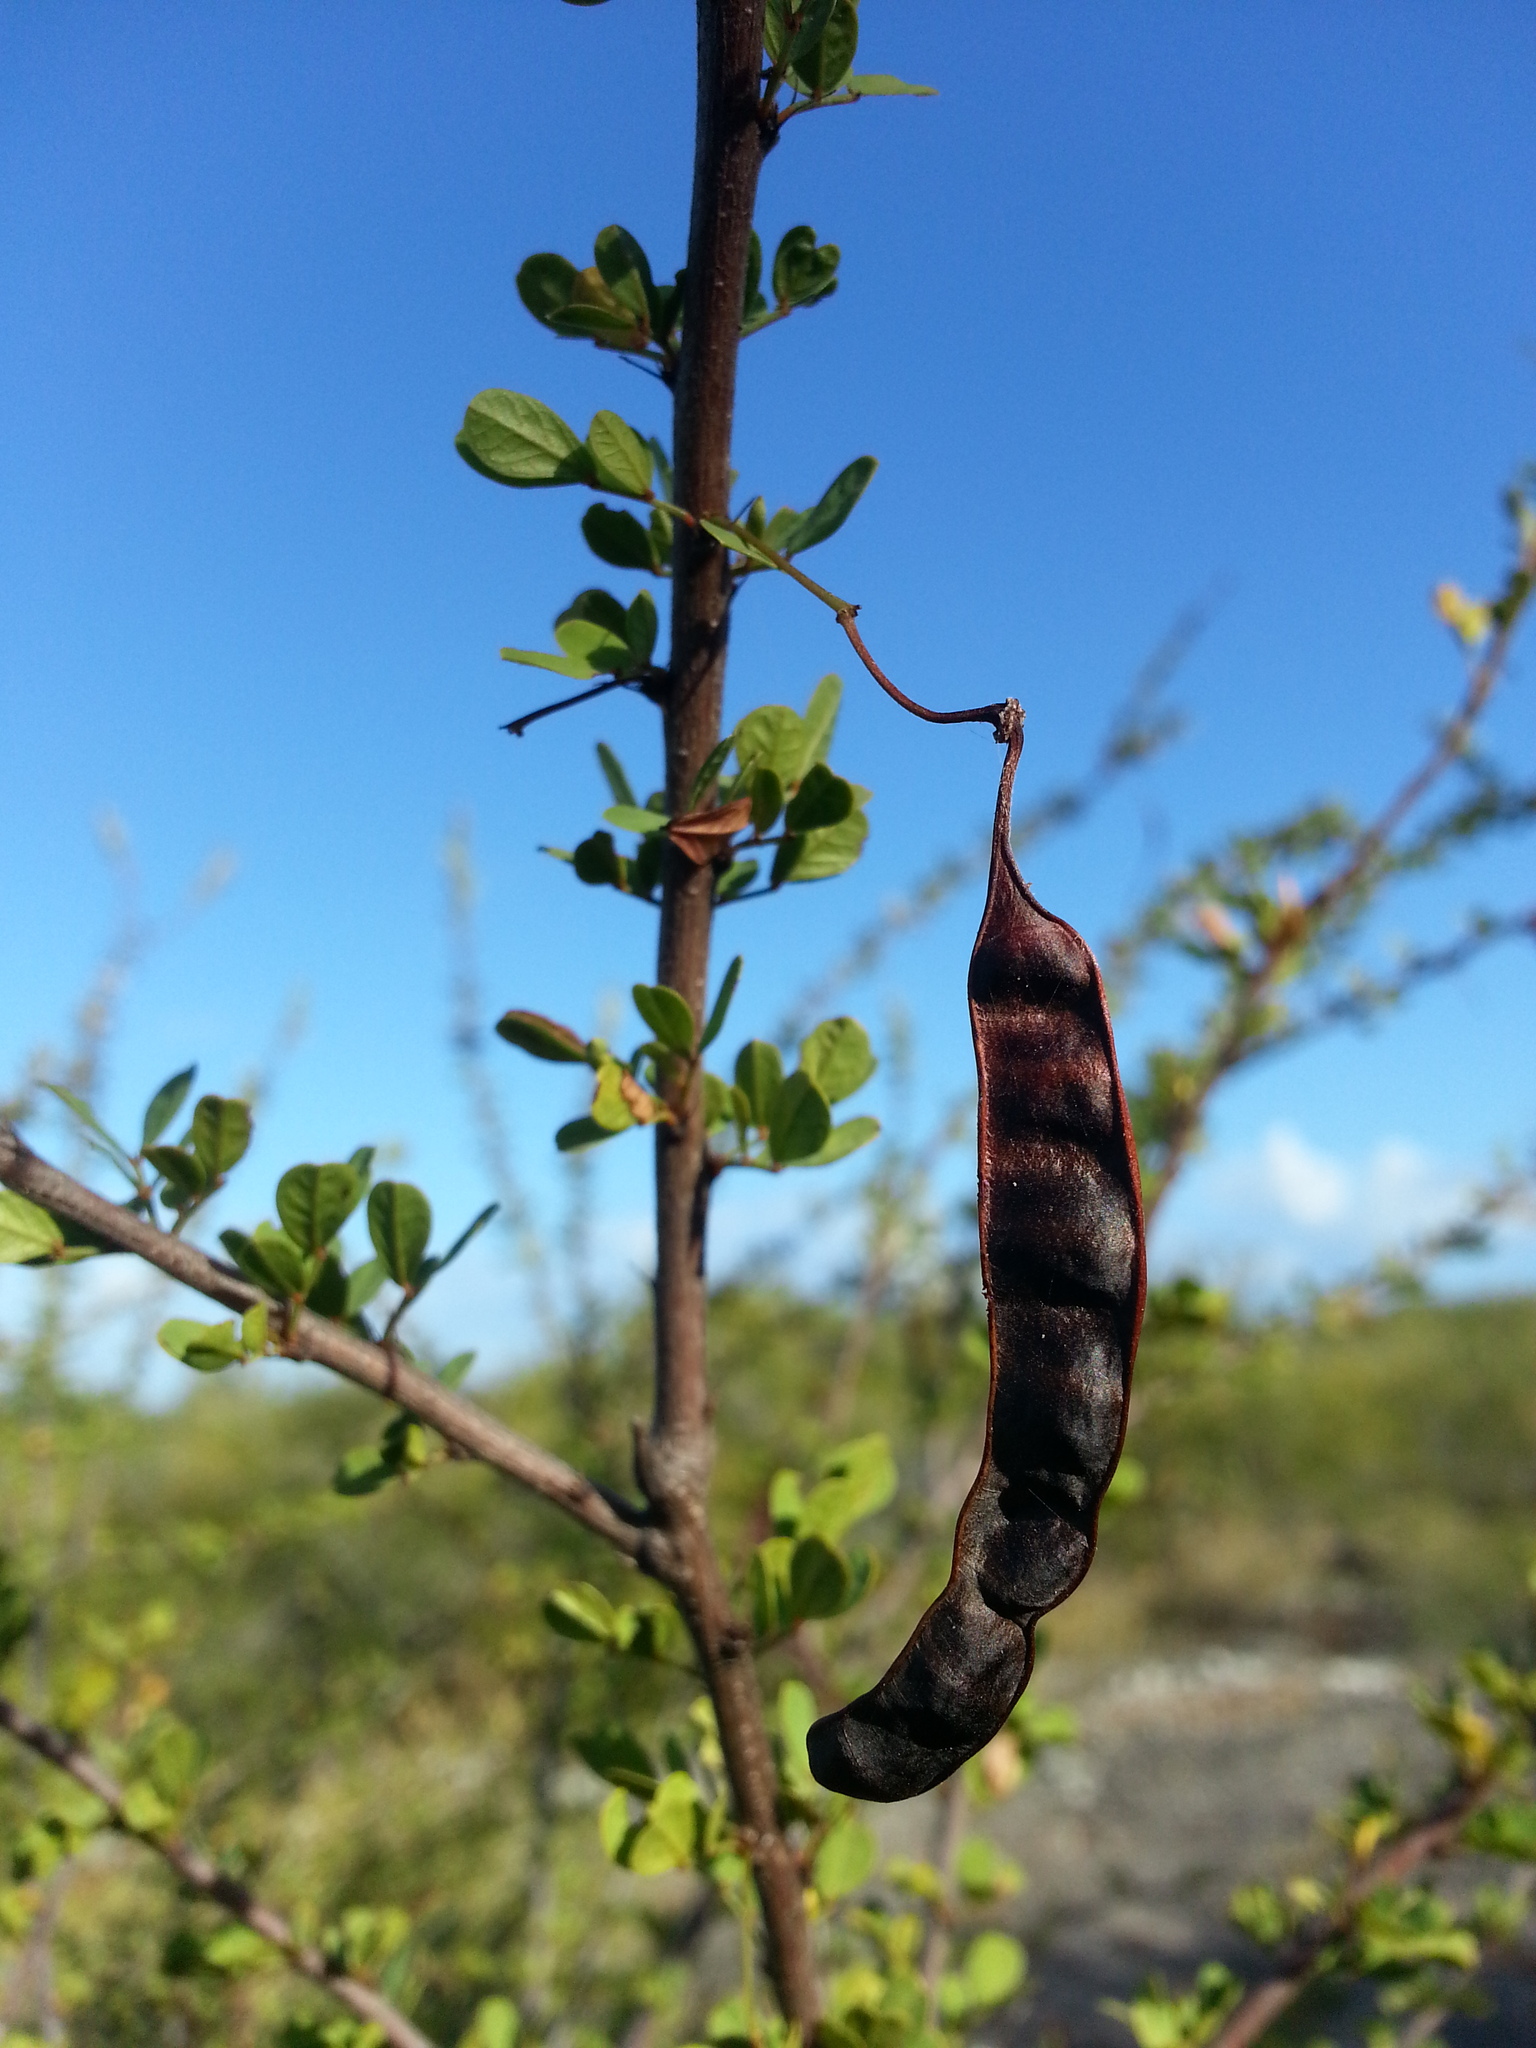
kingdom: Plantae
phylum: Tracheophyta
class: Magnoliopsida
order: Fabales
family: Fabaceae
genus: Senna
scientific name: Senna polyphylla
